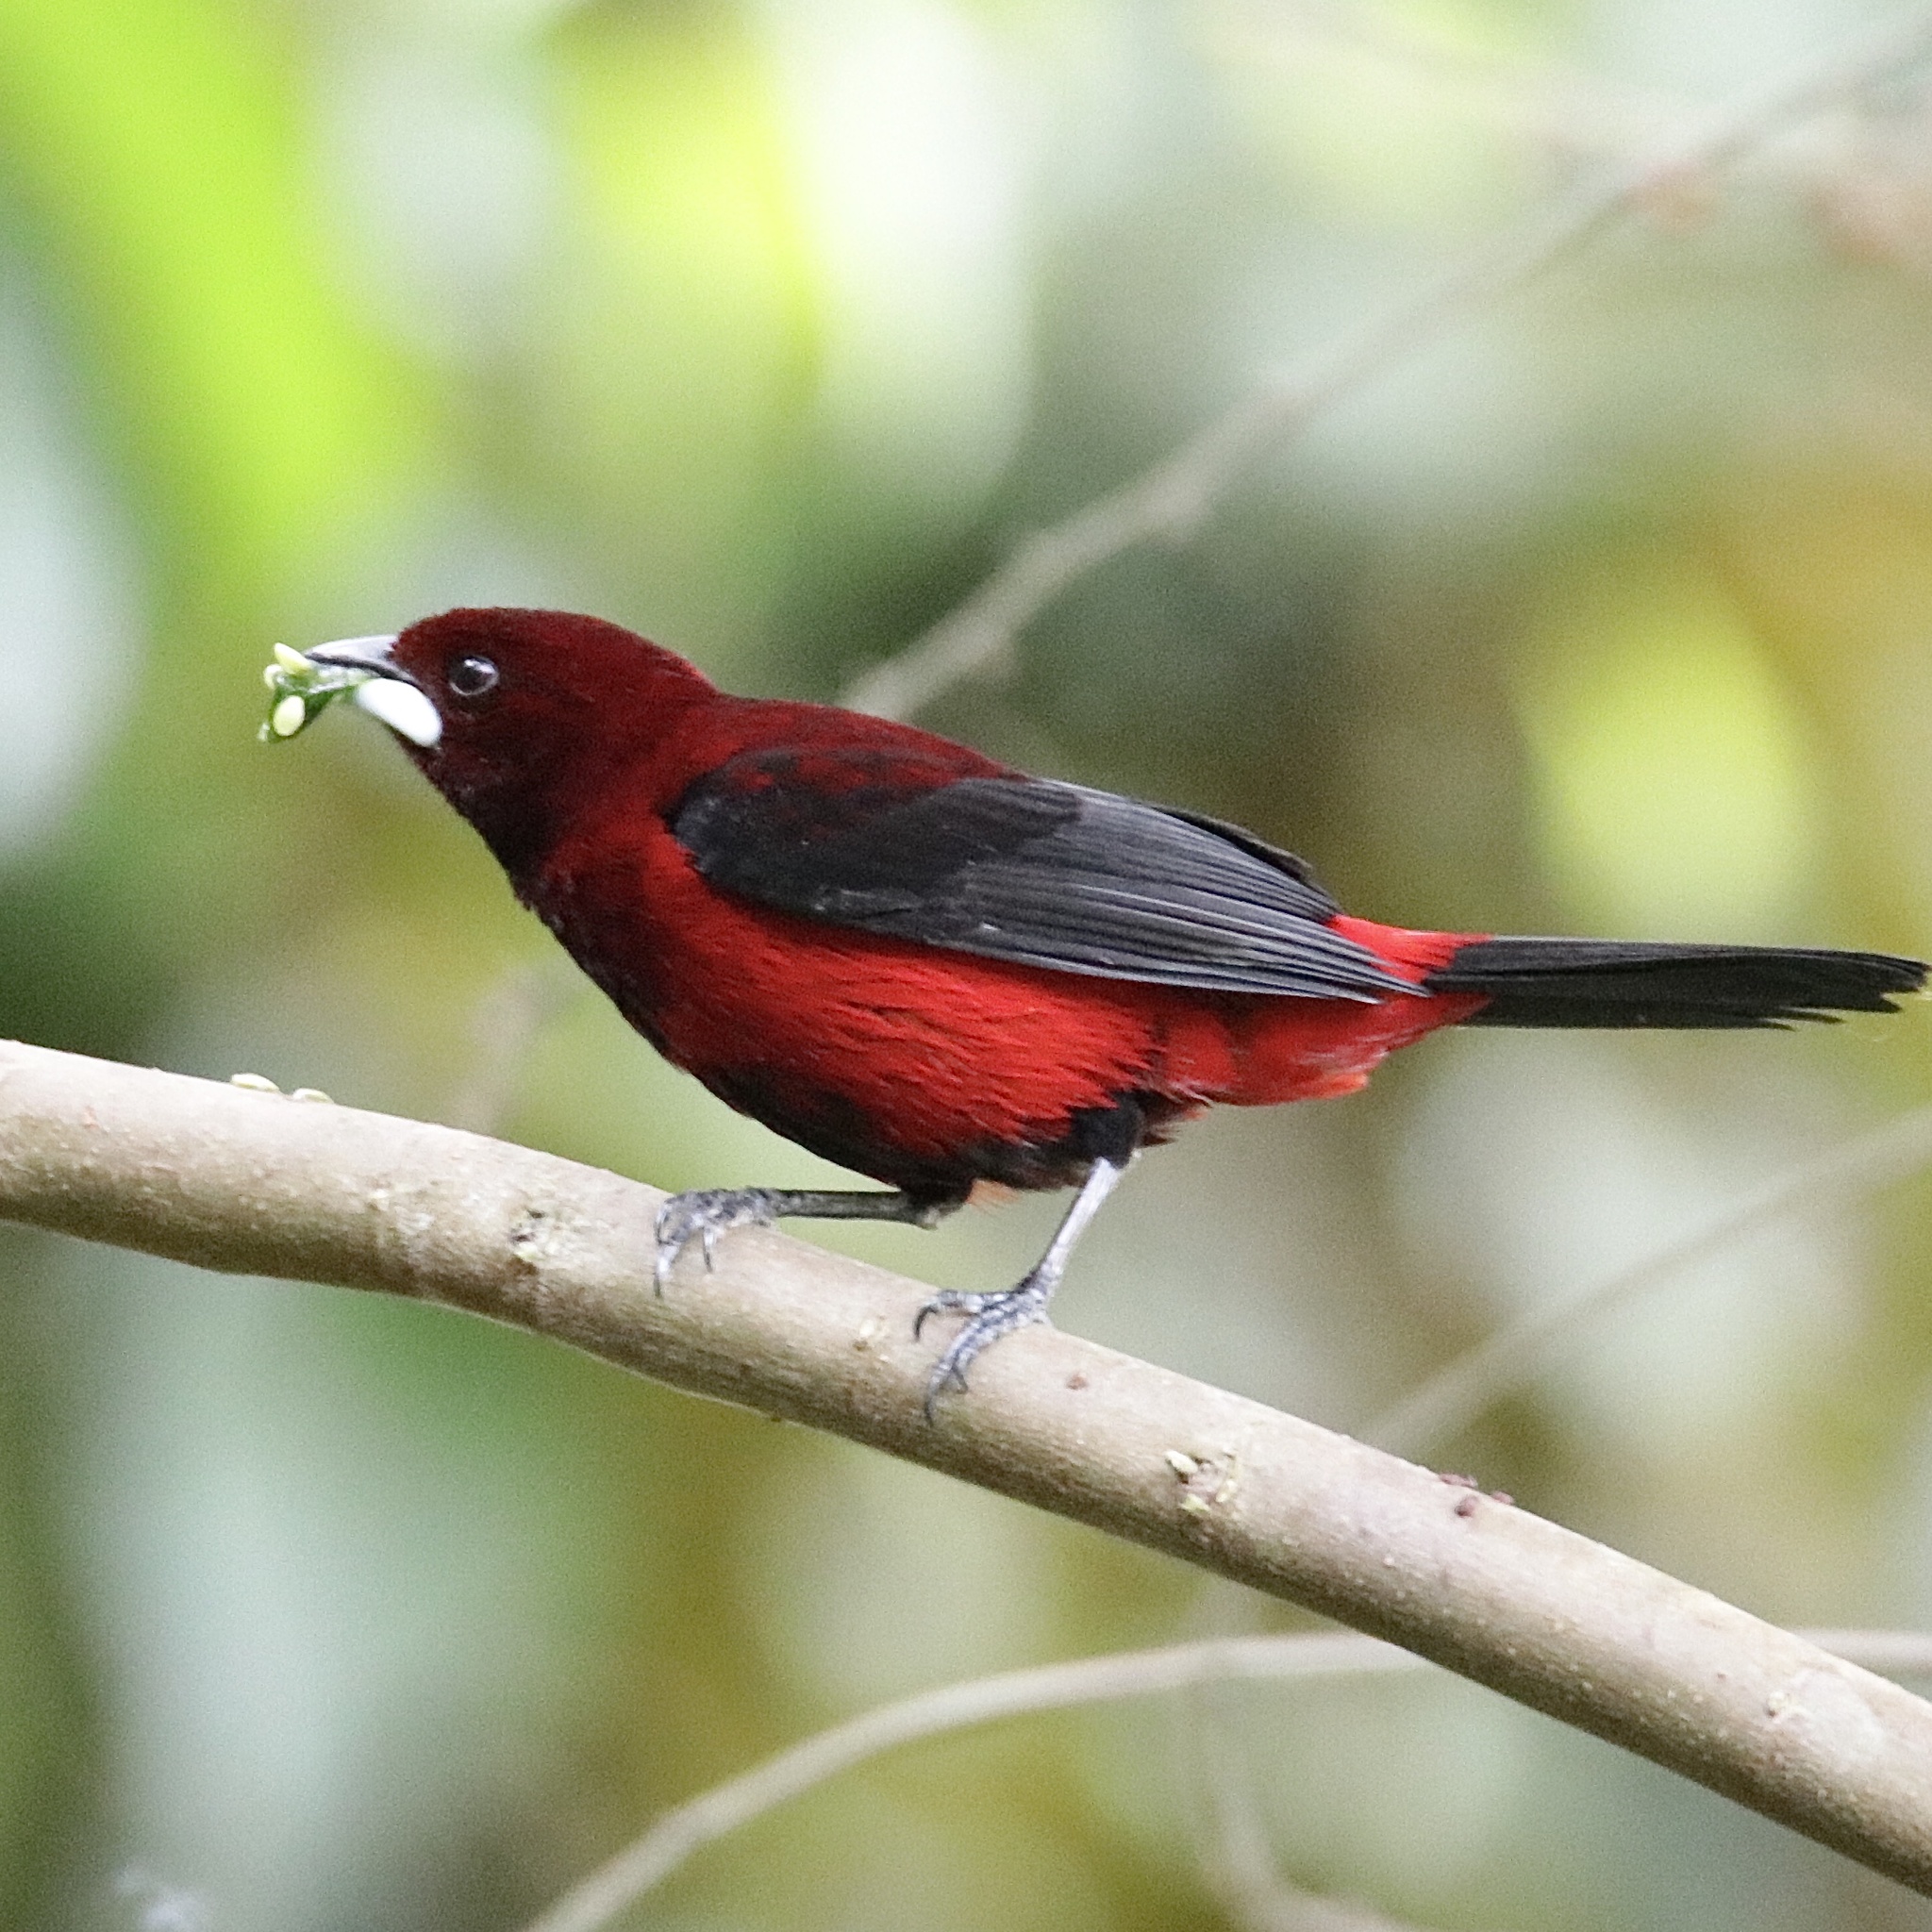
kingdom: Animalia
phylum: Chordata
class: Aves
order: Passeriformes
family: Thraupidae
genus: Ramphocelus
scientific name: Ramphocelus dimidiatus
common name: Crimson-backed tanager
